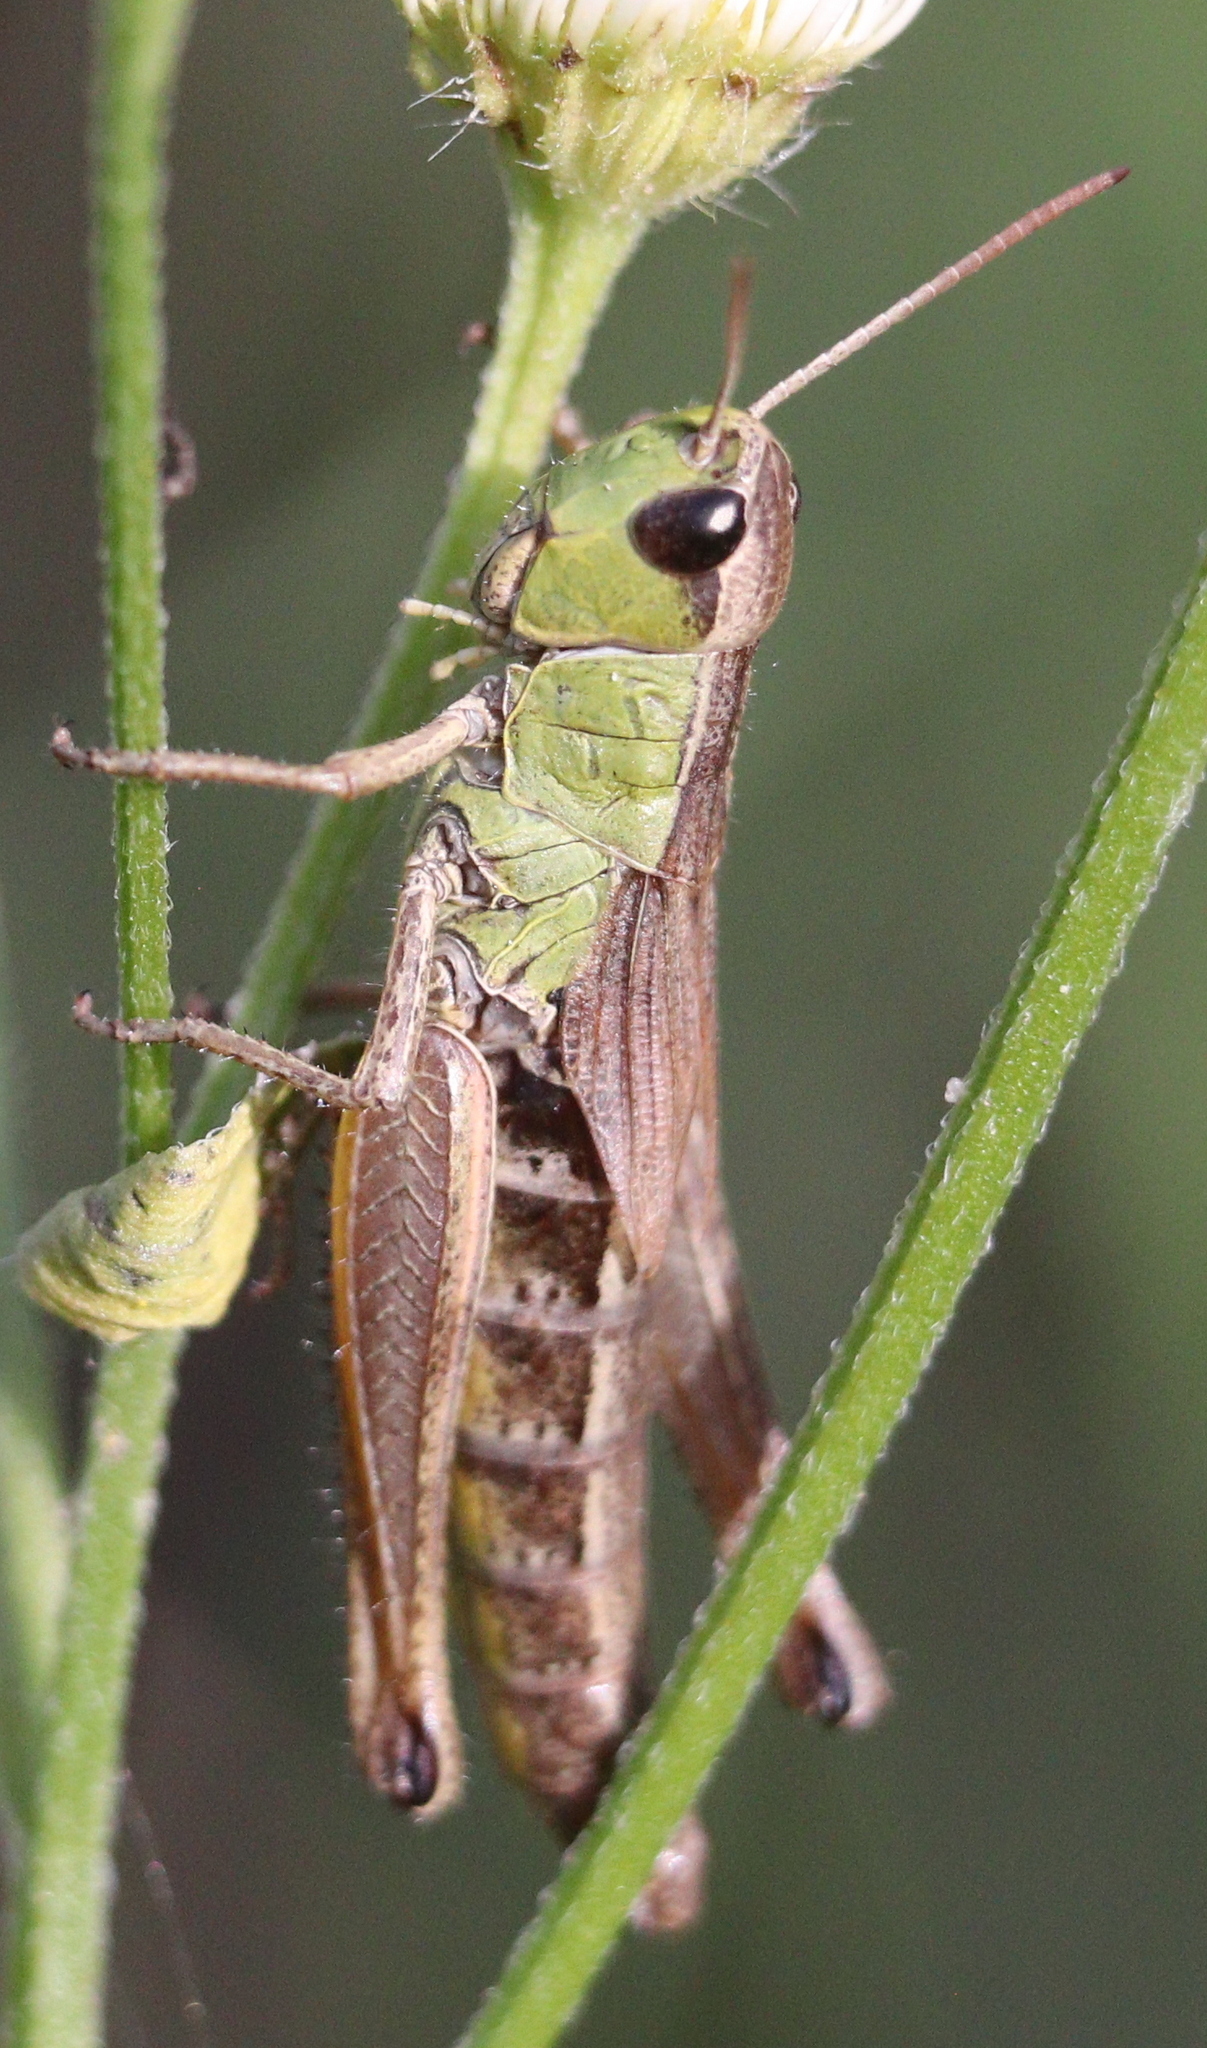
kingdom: Animalia
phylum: Arthropoda
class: Insecta
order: Orthoptera
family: Acrididae
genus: Pseudochorthippus
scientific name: Pseudochorthippus parallelus
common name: Meadow grasshopper
